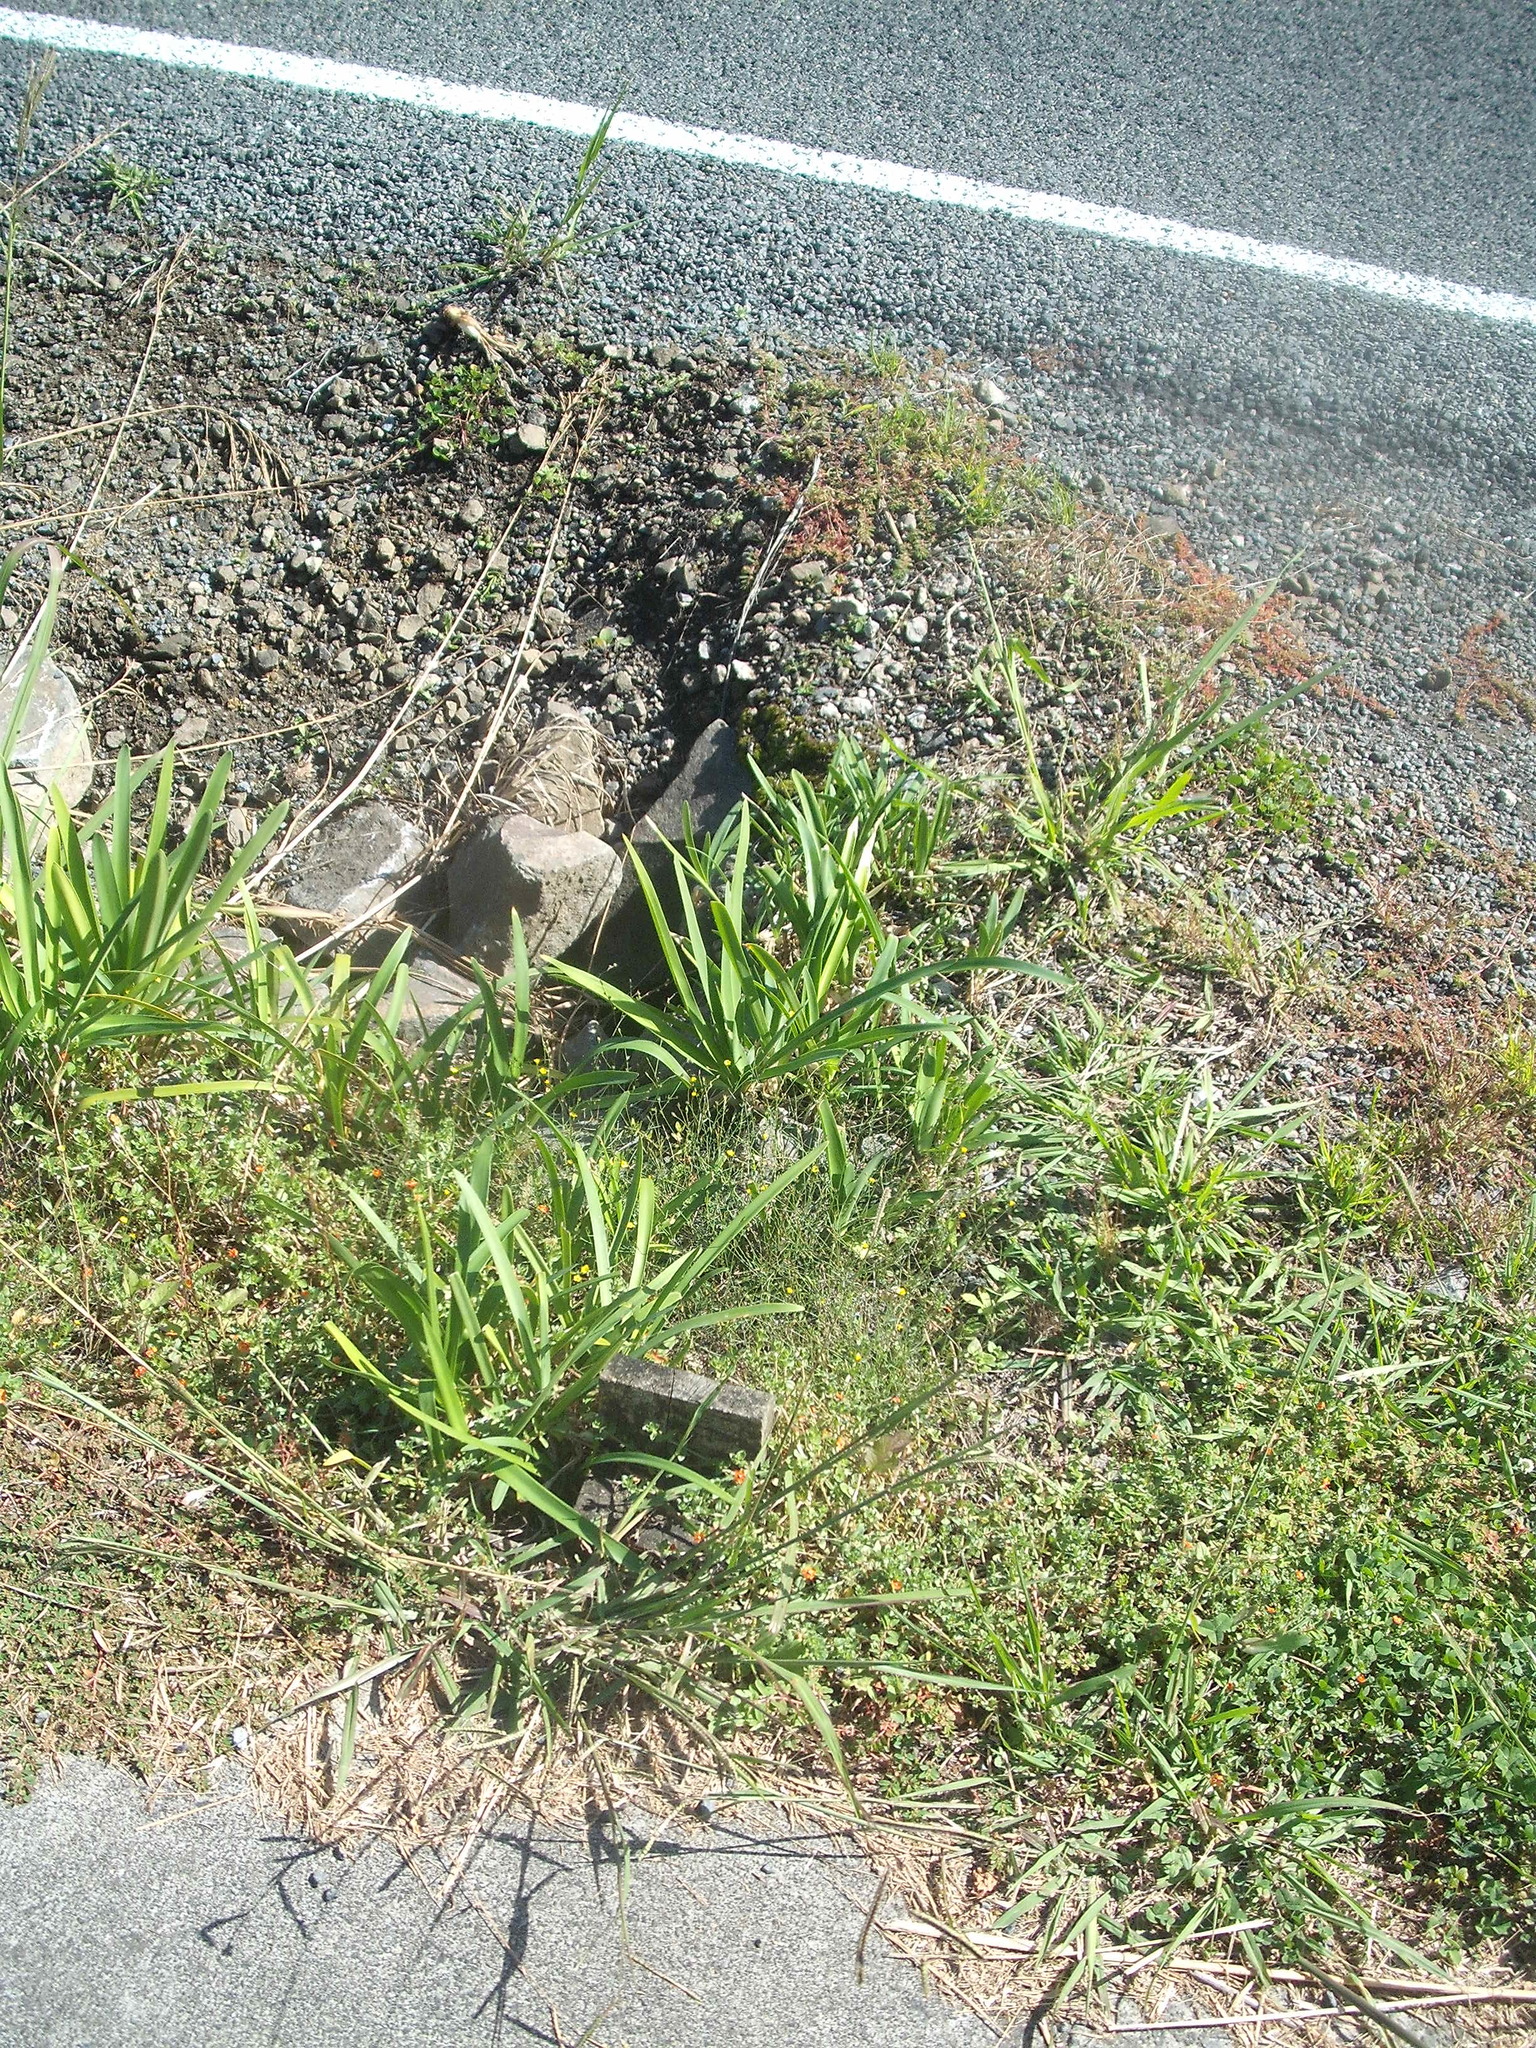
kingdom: Plantae
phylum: Tracheophyta
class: Magnoliopsida
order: Malpighiales
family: Linaceae
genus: Linum
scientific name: Linum trigynum
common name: French flax
